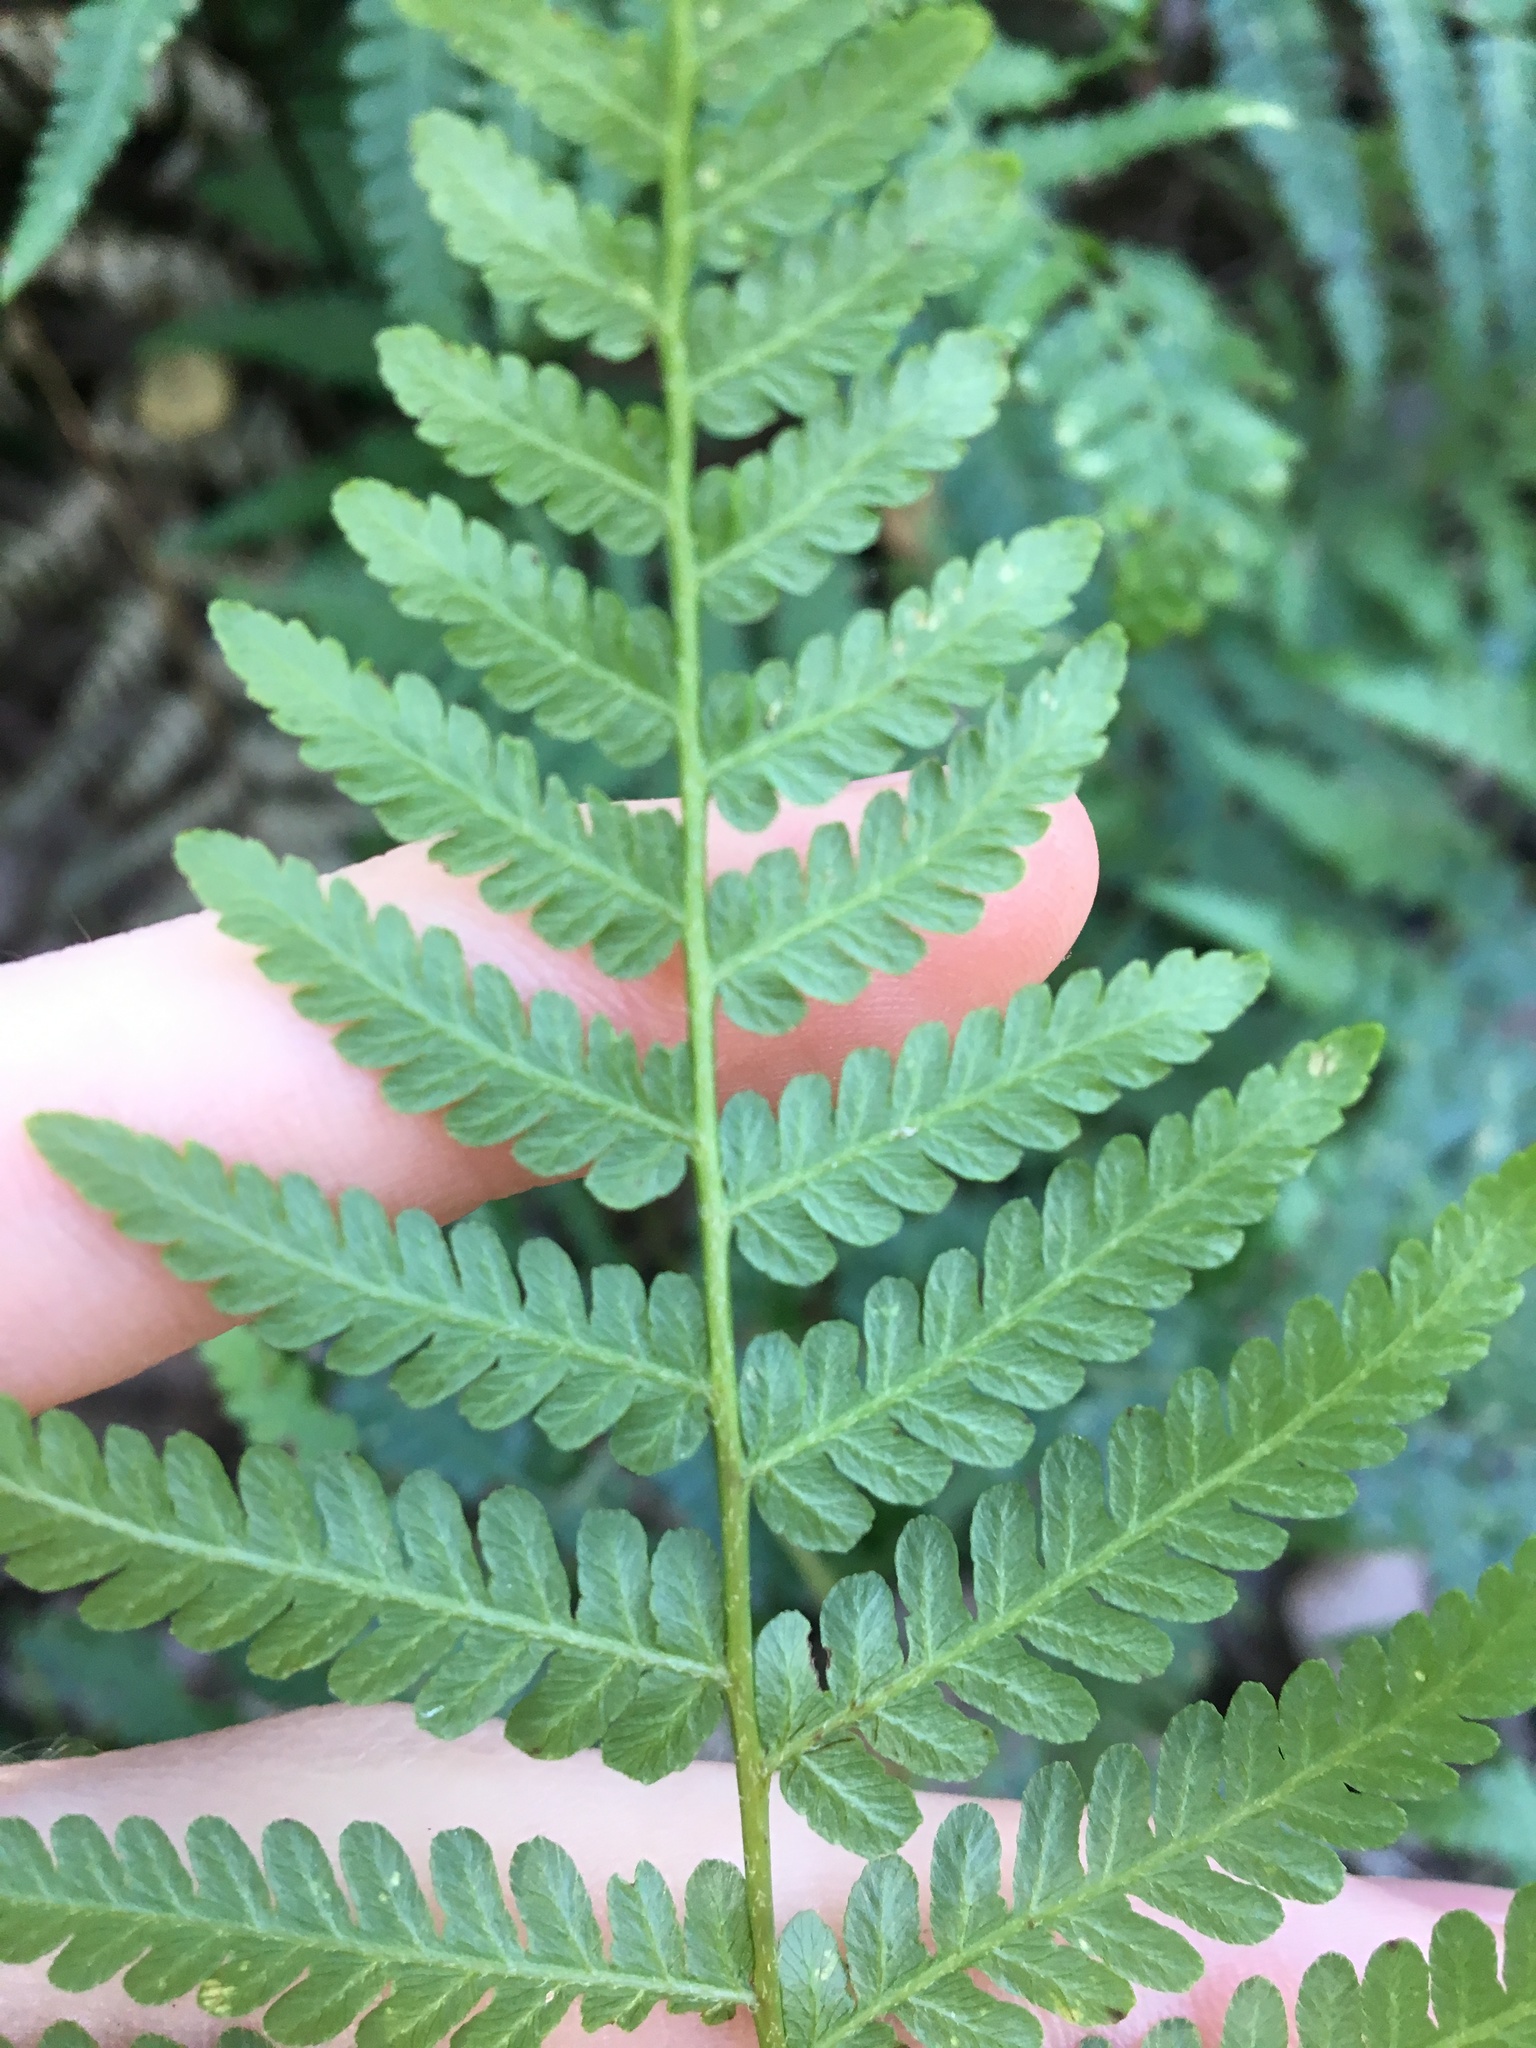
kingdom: Plantae
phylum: Tracheophyta
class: Polypodiopsida
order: Polypodiales
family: Dennstaedtiaceae
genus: Hypolepis
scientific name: Hypolepis muelleri
